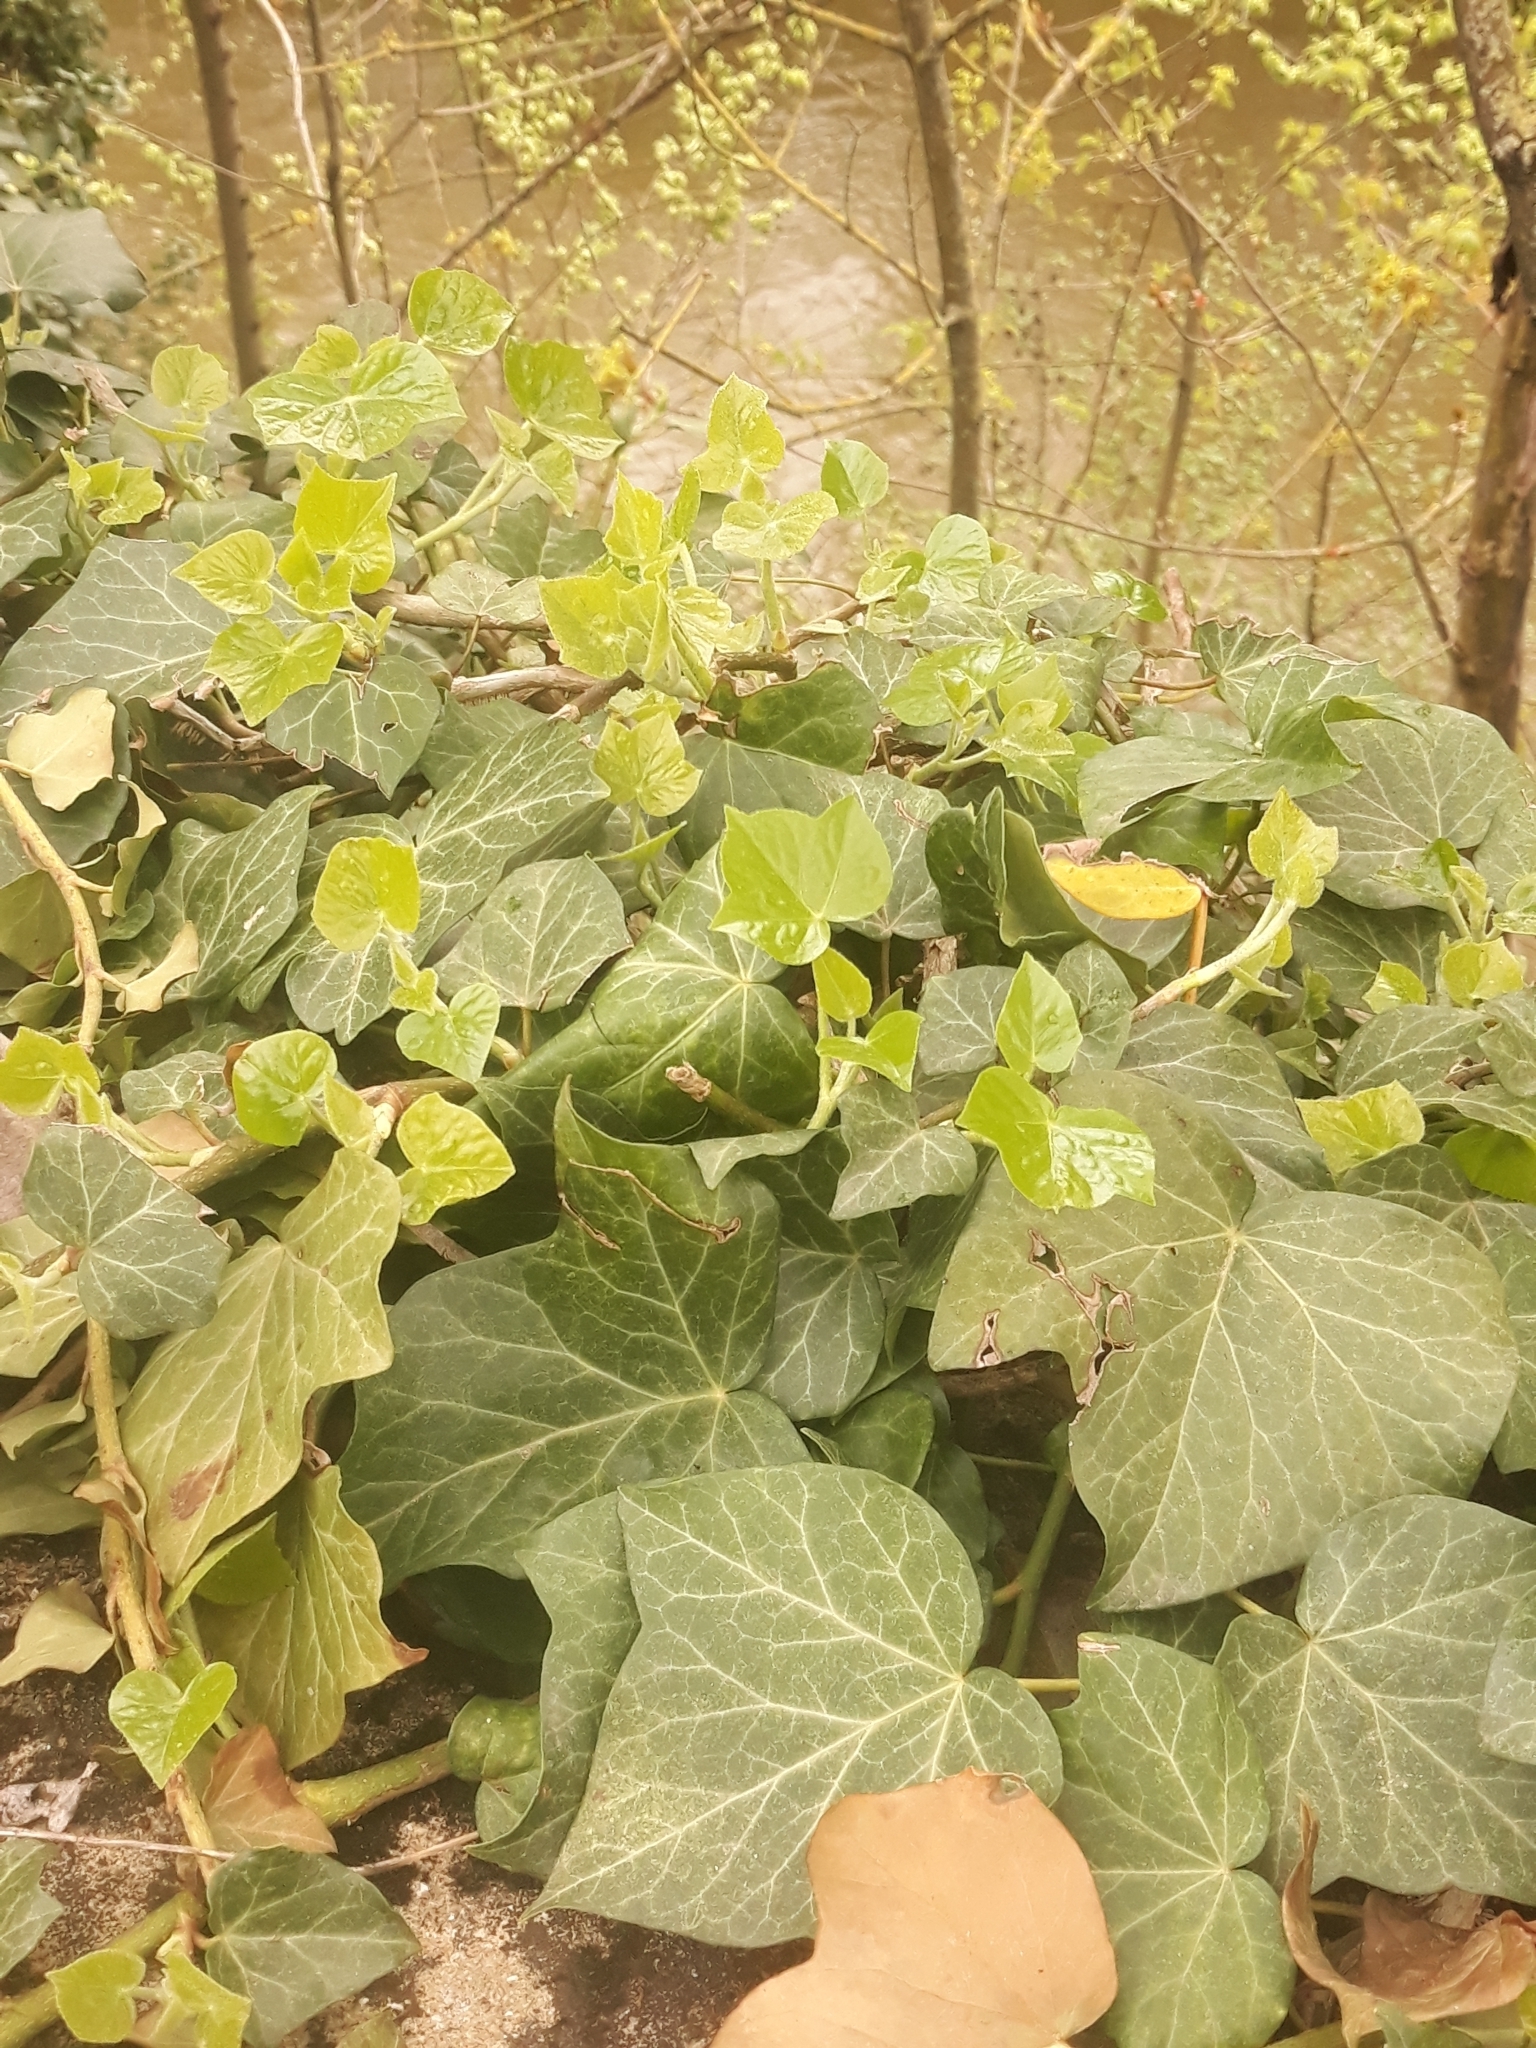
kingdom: Plantae
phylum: Tracheophyta
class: Magnoliopsida
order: Apiales
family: Araliaceae
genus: Hedera
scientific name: Hedera helix
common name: Ivy
